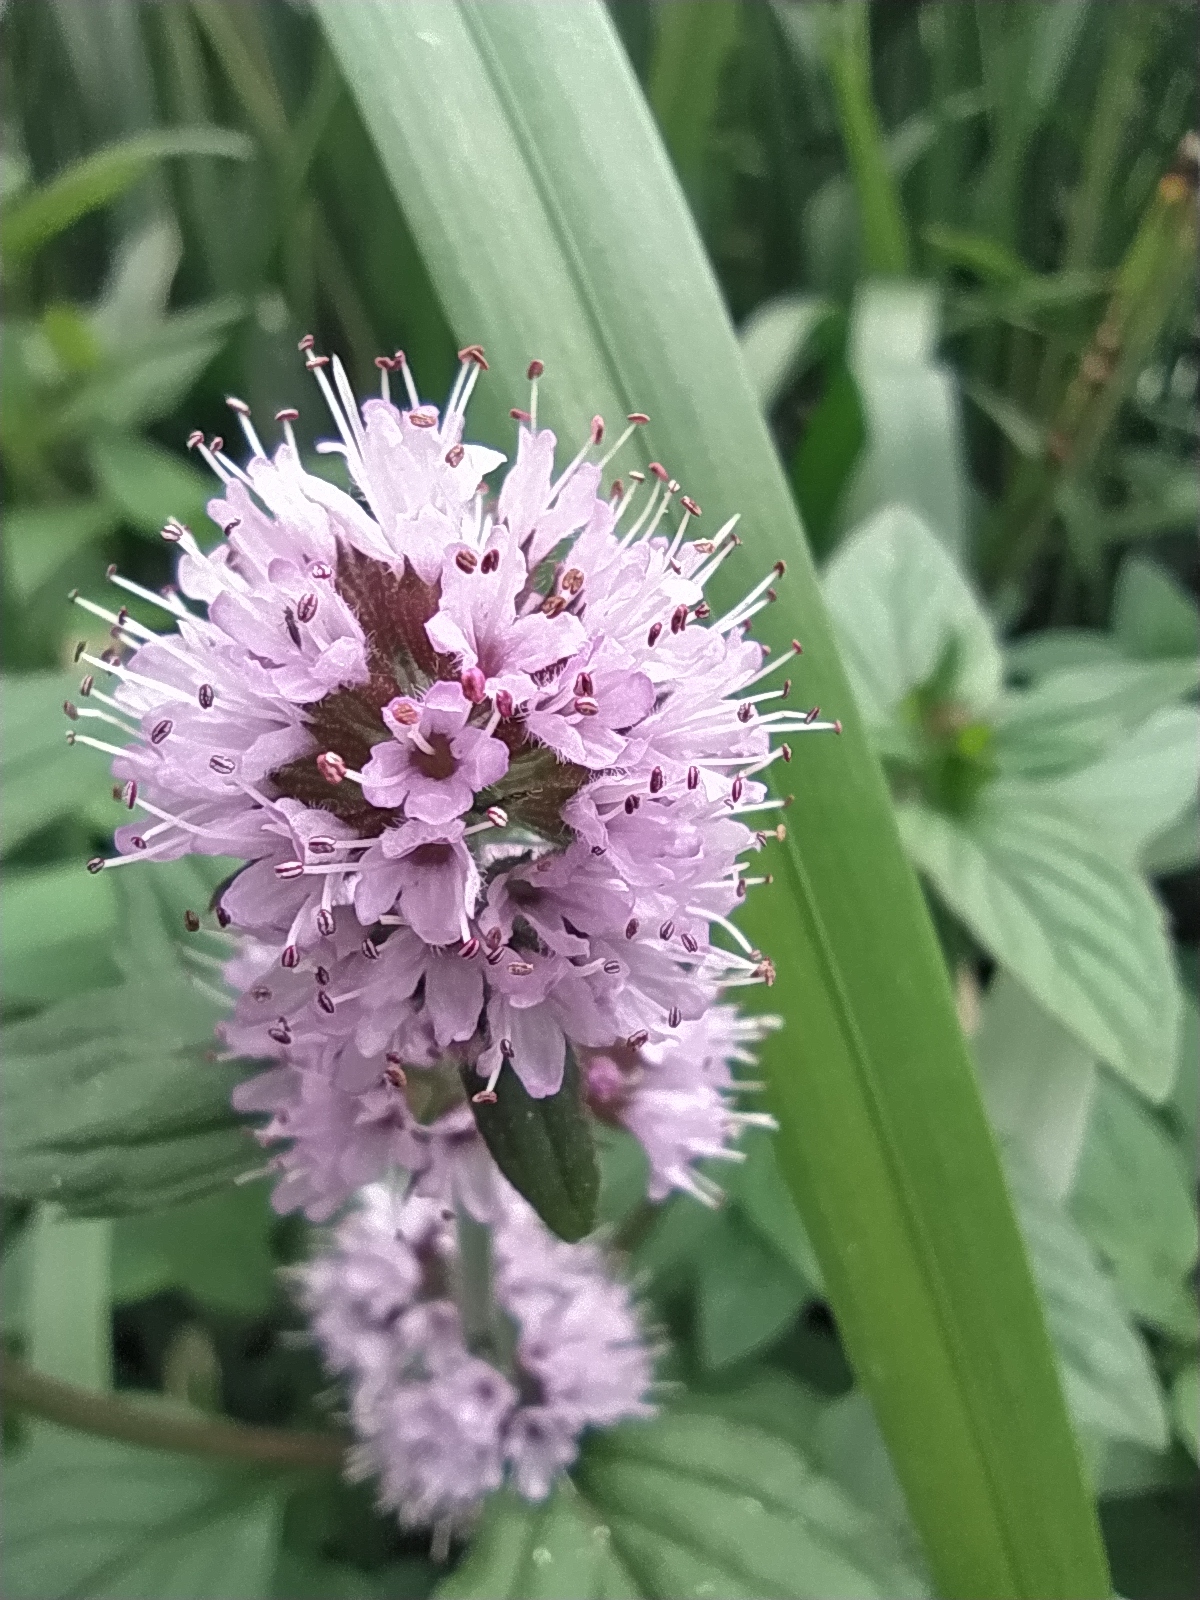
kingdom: Plantae
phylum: Tracheophyta
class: Magnoliopsida
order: Lamiales
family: Lamiaceae
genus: Mentha
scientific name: Mentha aquatica
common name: Water mint
